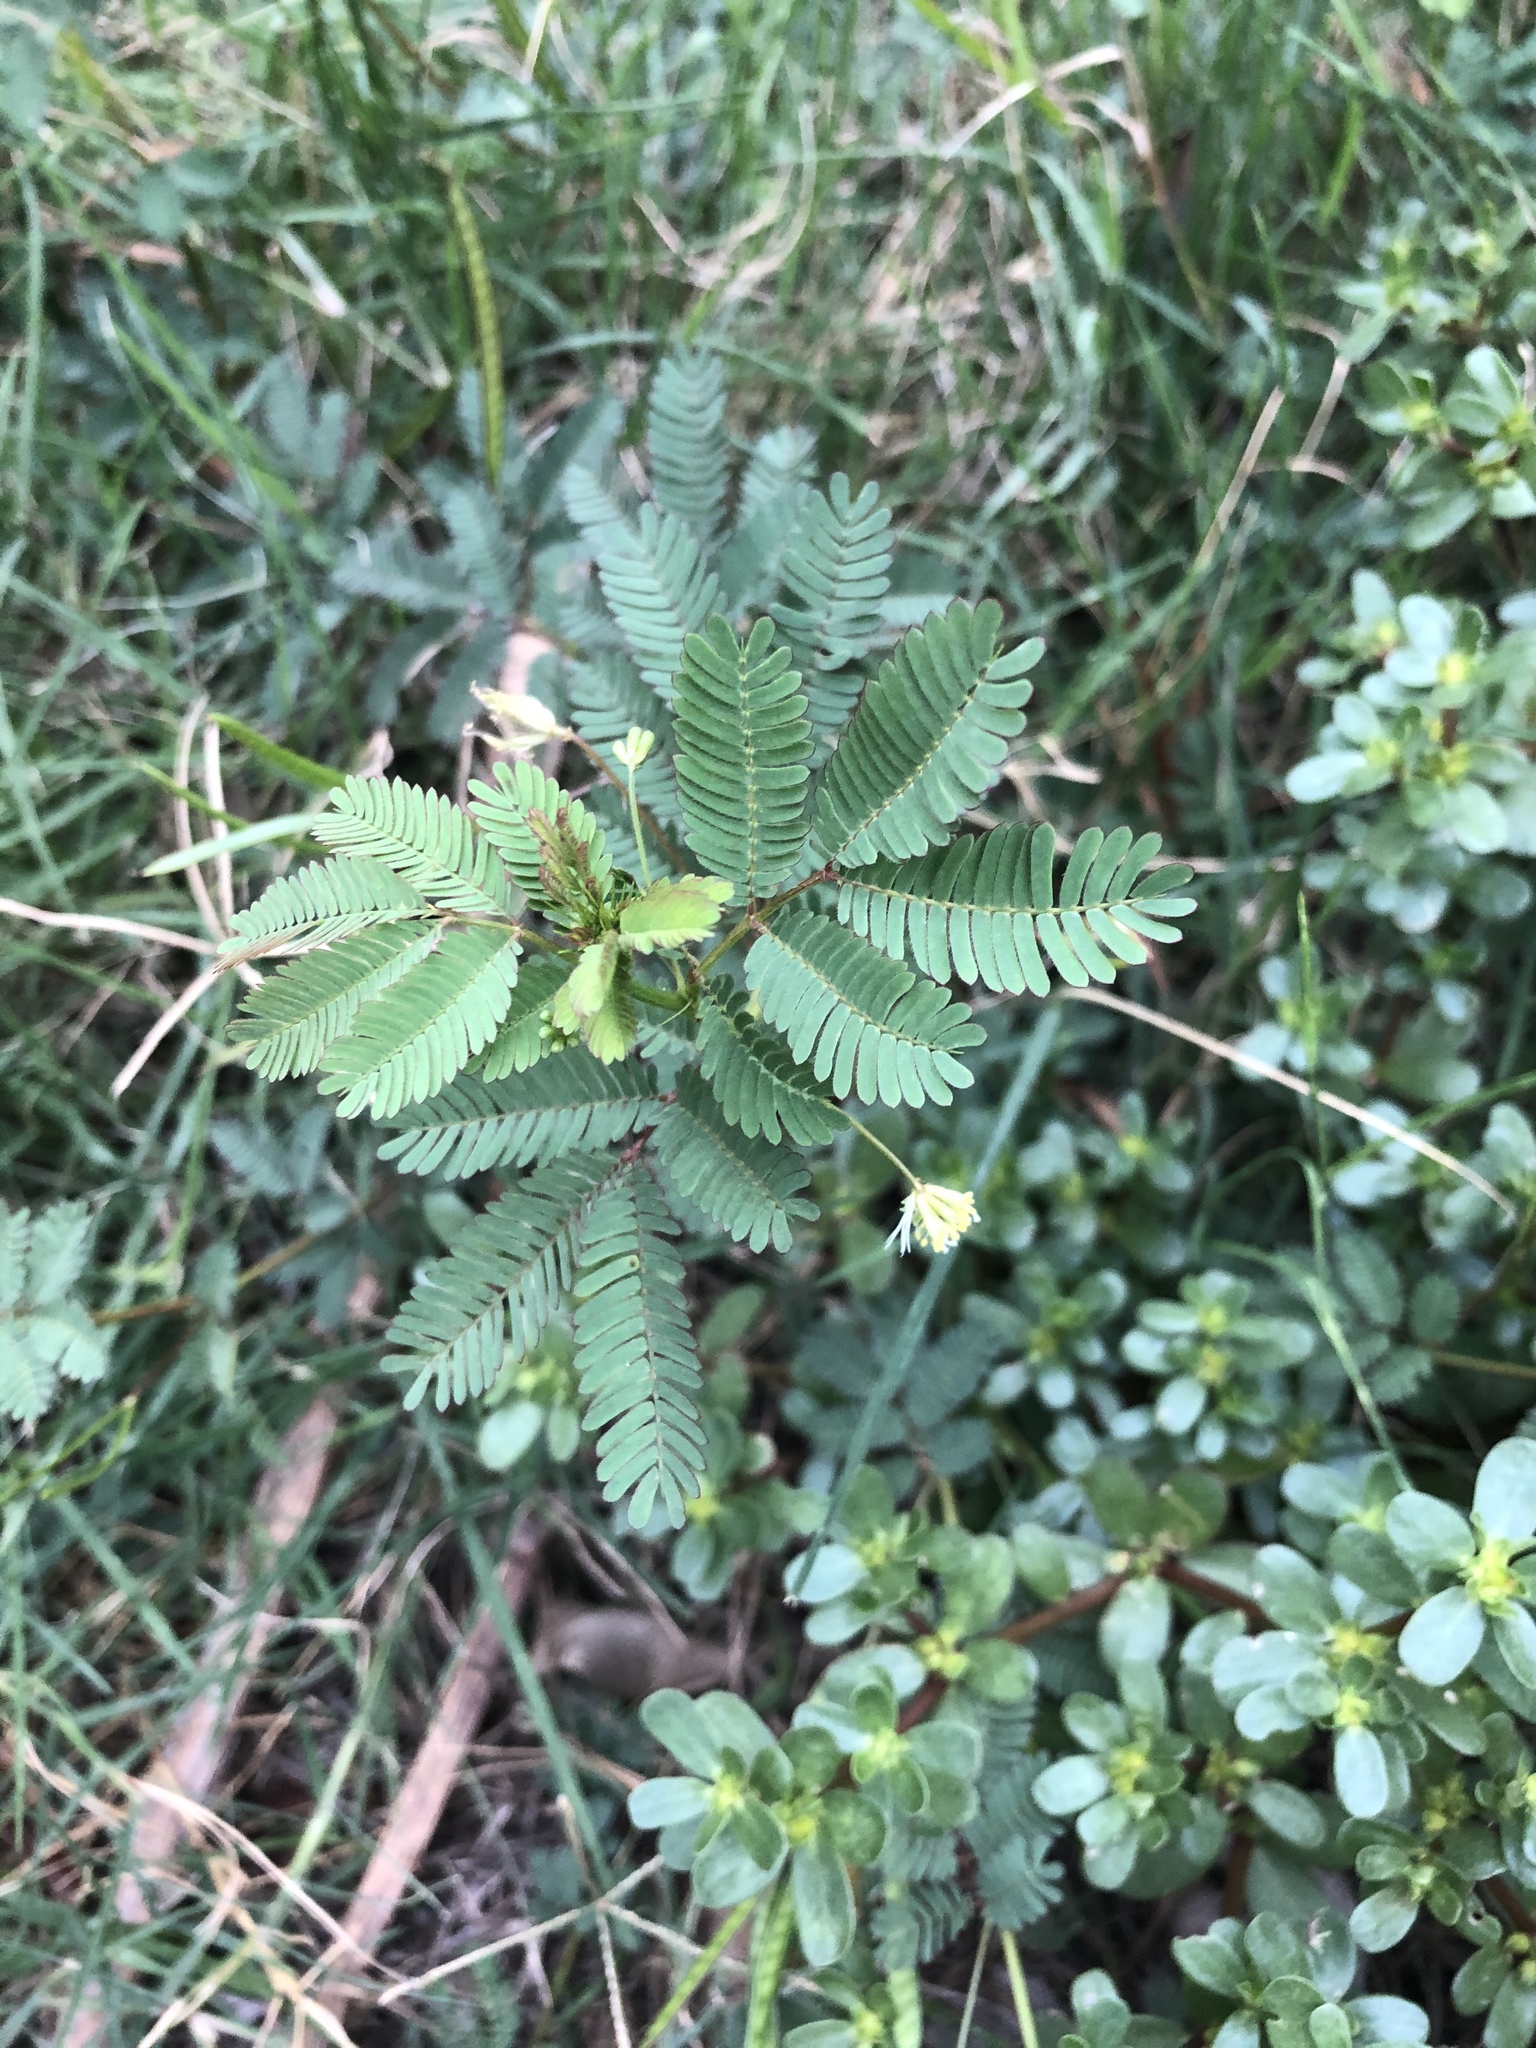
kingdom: Plantae
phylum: Tracheophyta
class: Magnoliopsida
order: Fabales
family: Fabaceae
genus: Desmanthus
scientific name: Desmanthus virgatus
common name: Wild tantan
